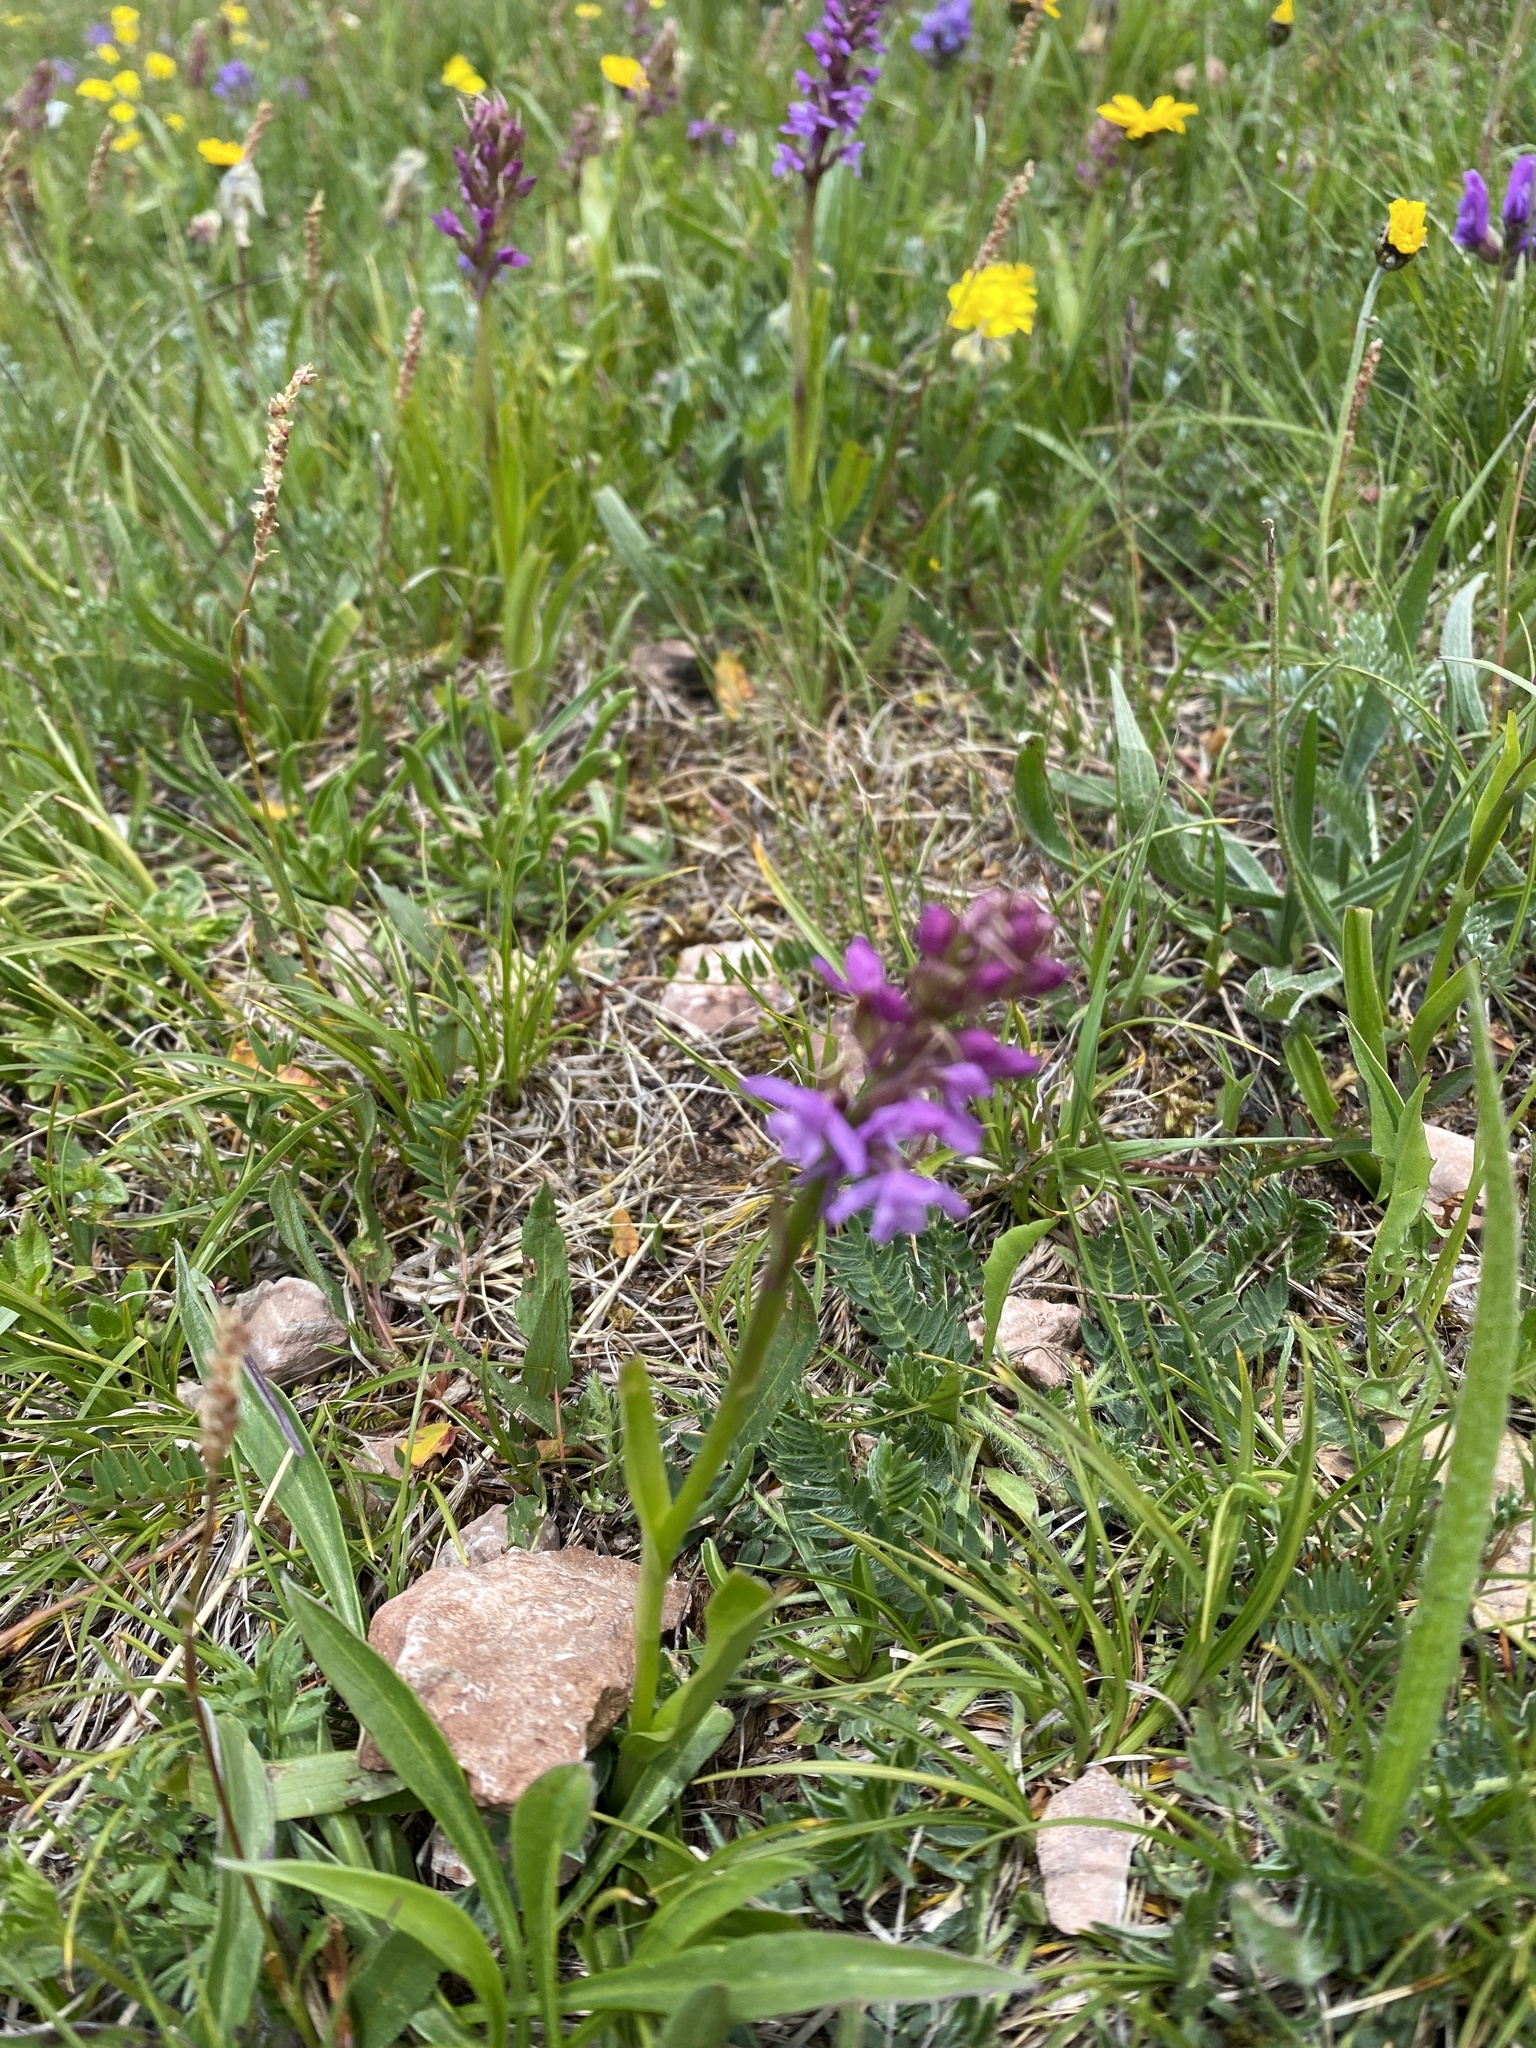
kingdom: Plantae
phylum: Tracheophyta
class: Liliopsida
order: Asparagales
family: Orchidaceae
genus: Gymnadenia
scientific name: Gymnadenia conopsea
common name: Fragrant orchid
